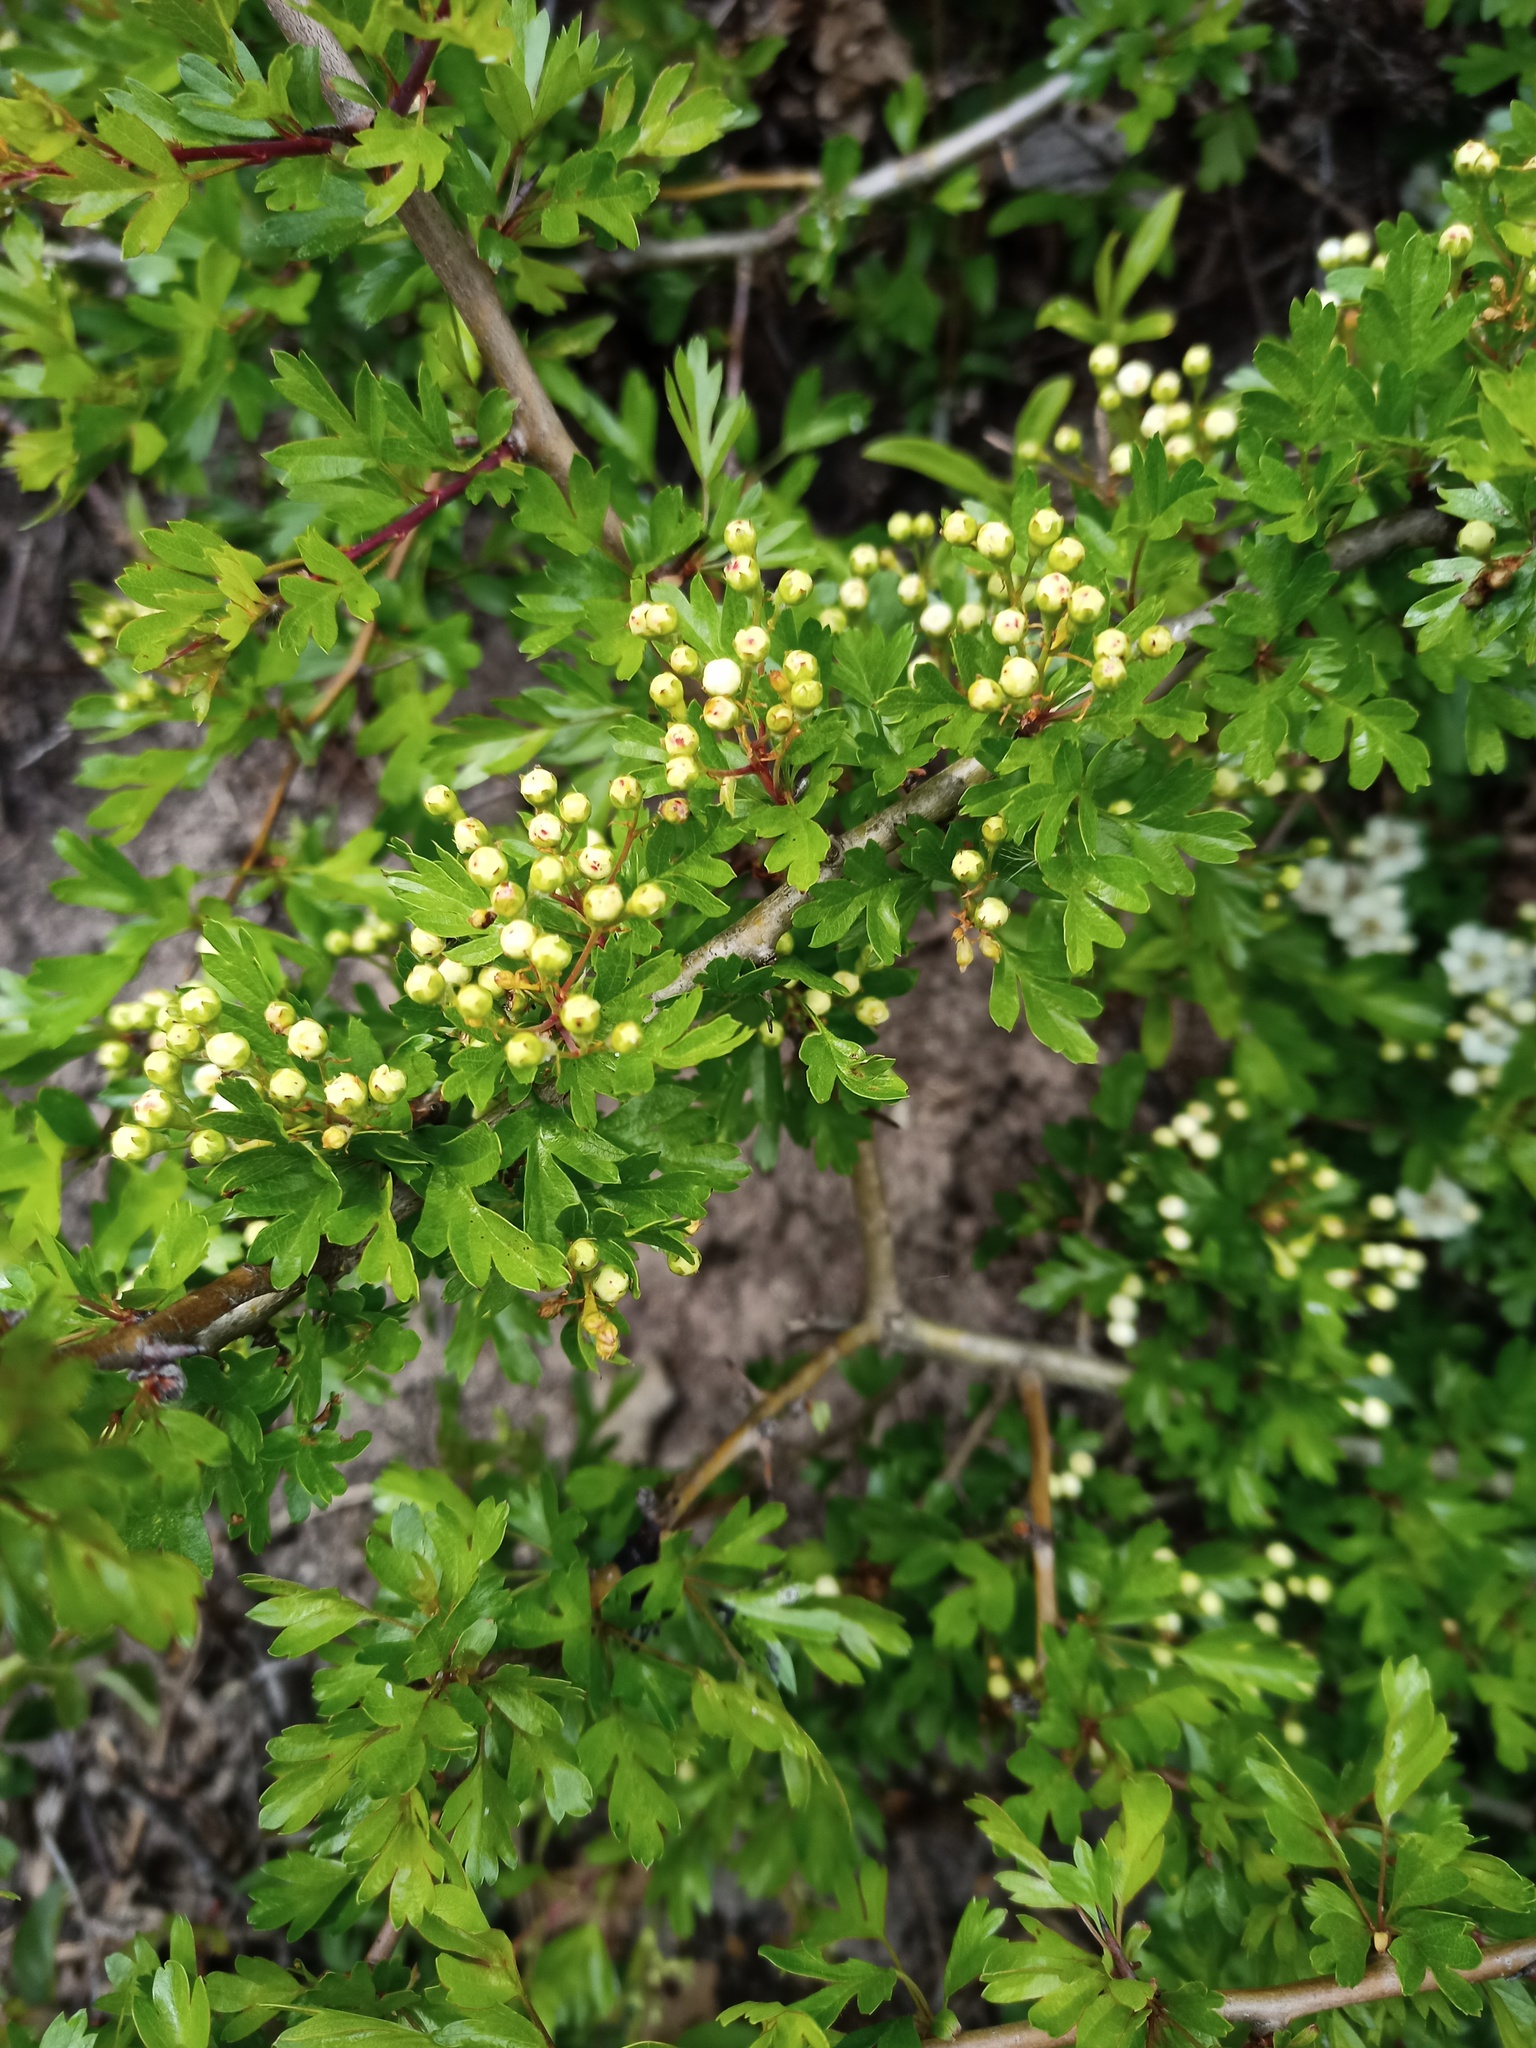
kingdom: Plantae
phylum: Tracheophyta
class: Magnoliopsida
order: Rosales
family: Rosaceae
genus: Crataegus
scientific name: Crataegus monogyna
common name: Hawthorn
